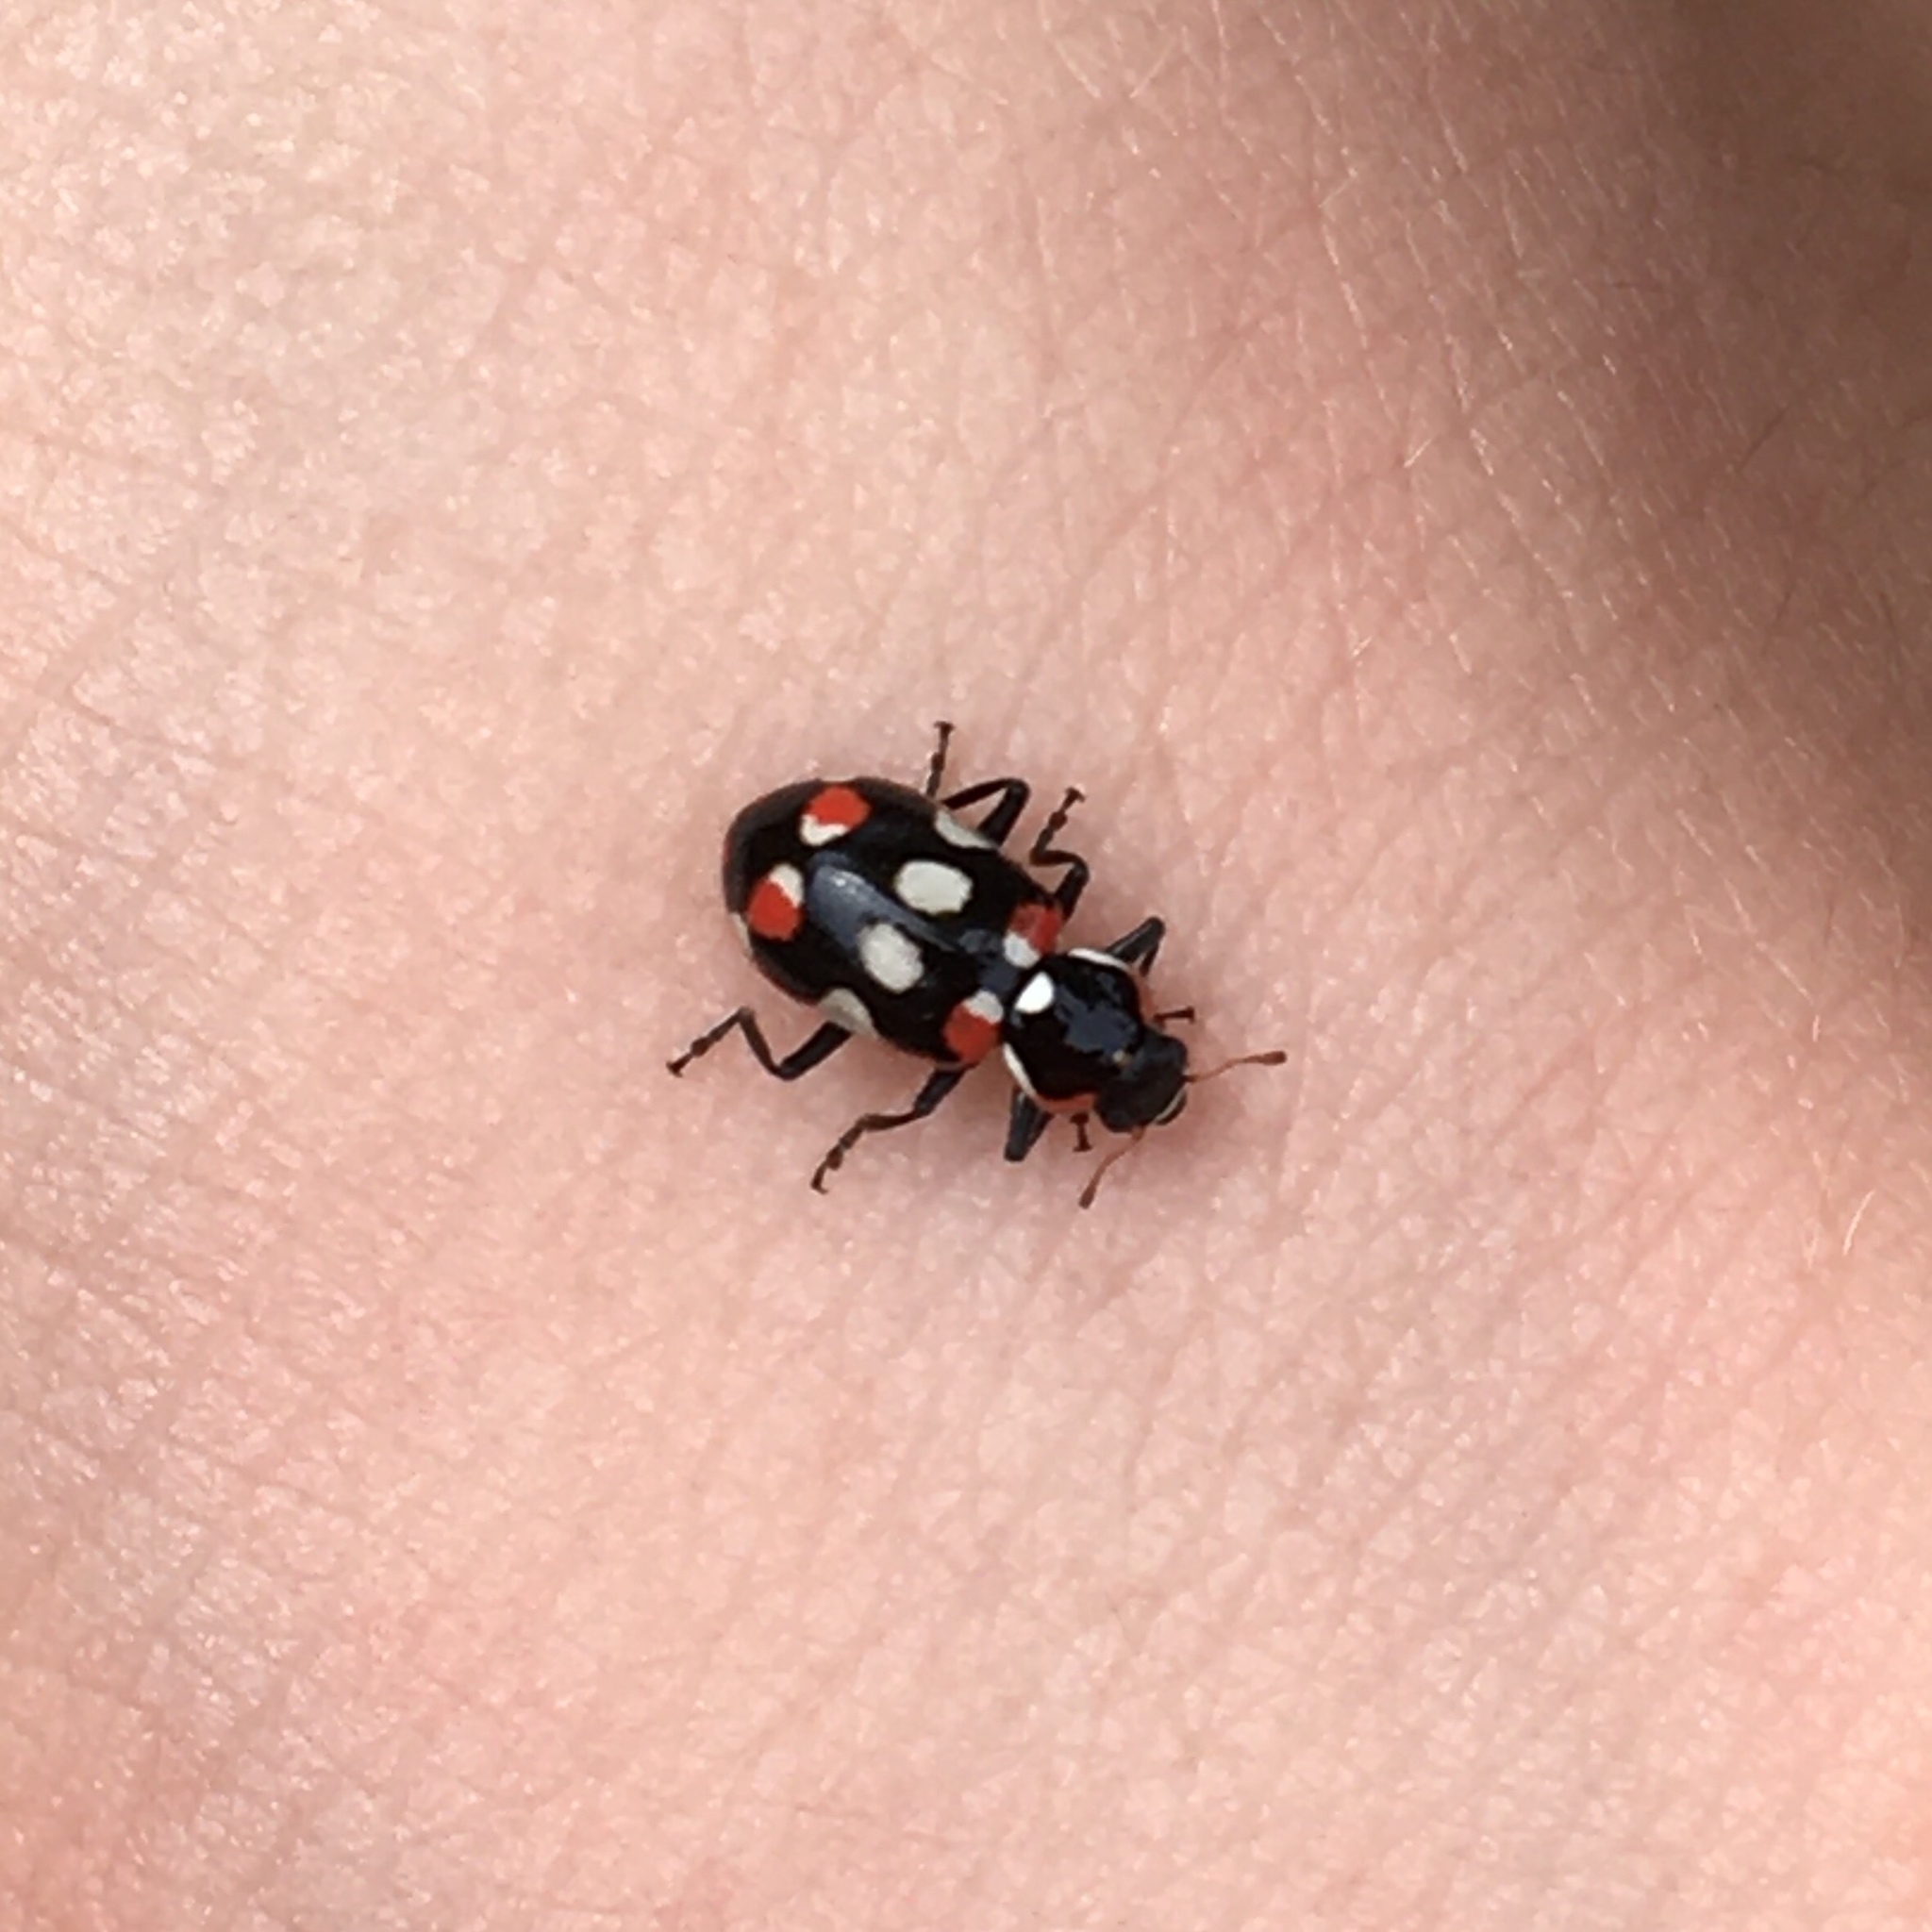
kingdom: Animalia
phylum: Arthropoda
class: Insecta
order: Coleoptera
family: Coccinellidae
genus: Eriopis
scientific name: Eriopis connexa
